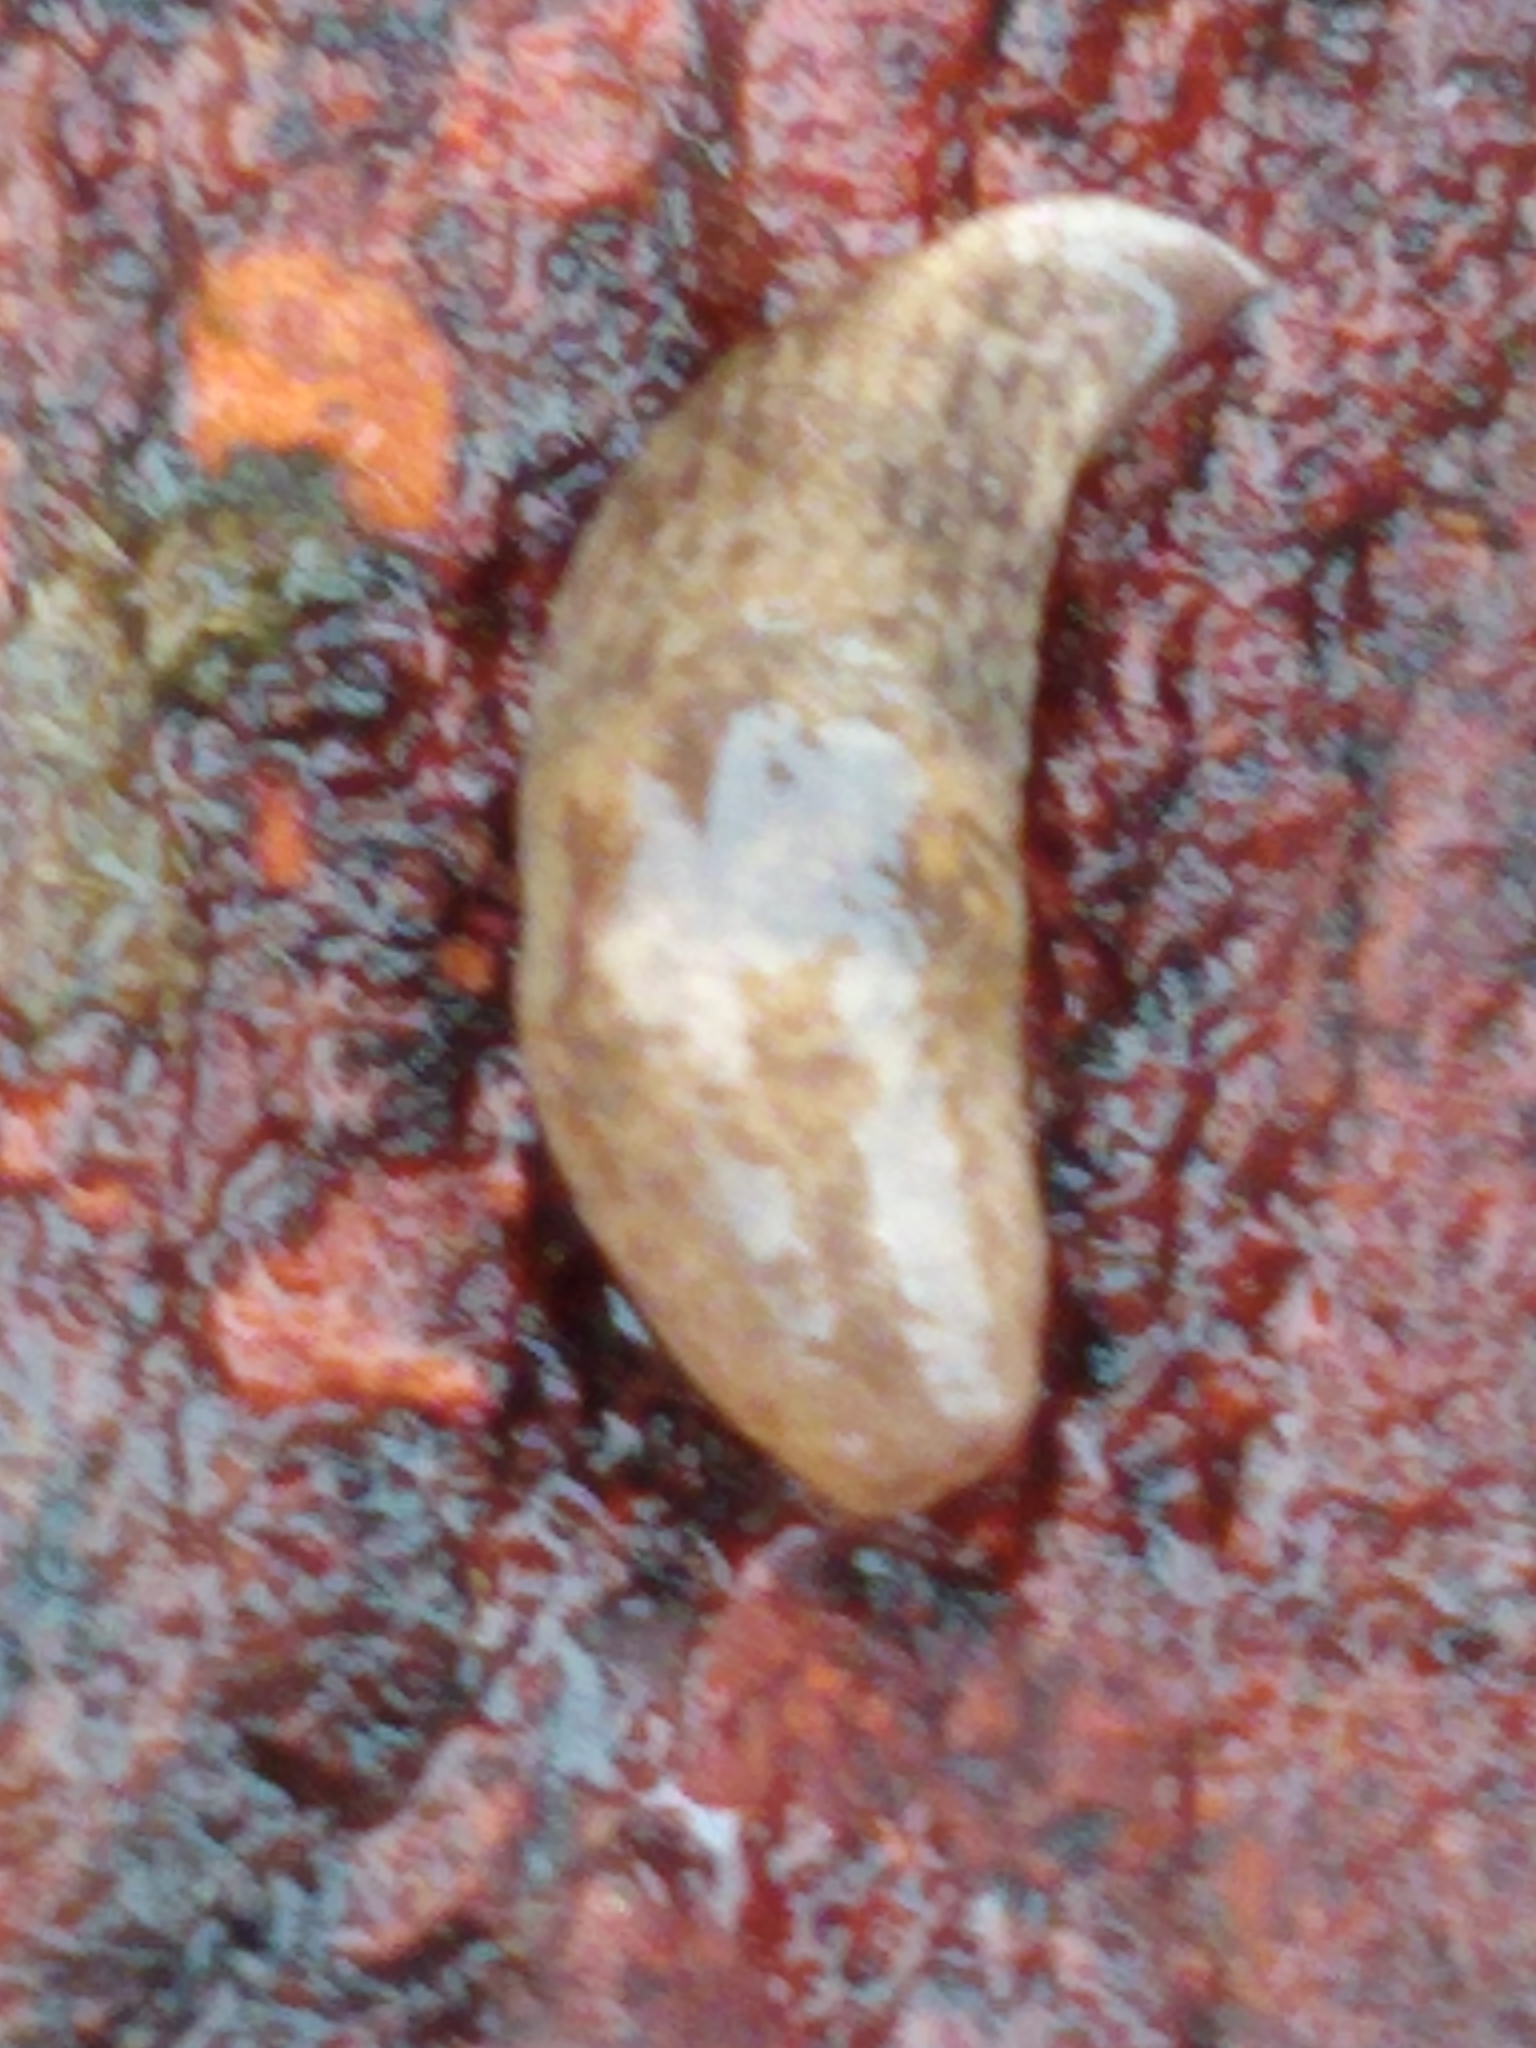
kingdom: Animalia
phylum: Mollusca
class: Gastropoda
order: Stylommatophora
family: Agriolimacidae
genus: Deroceras
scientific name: Deroceras reticulatum
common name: Gray field slug
